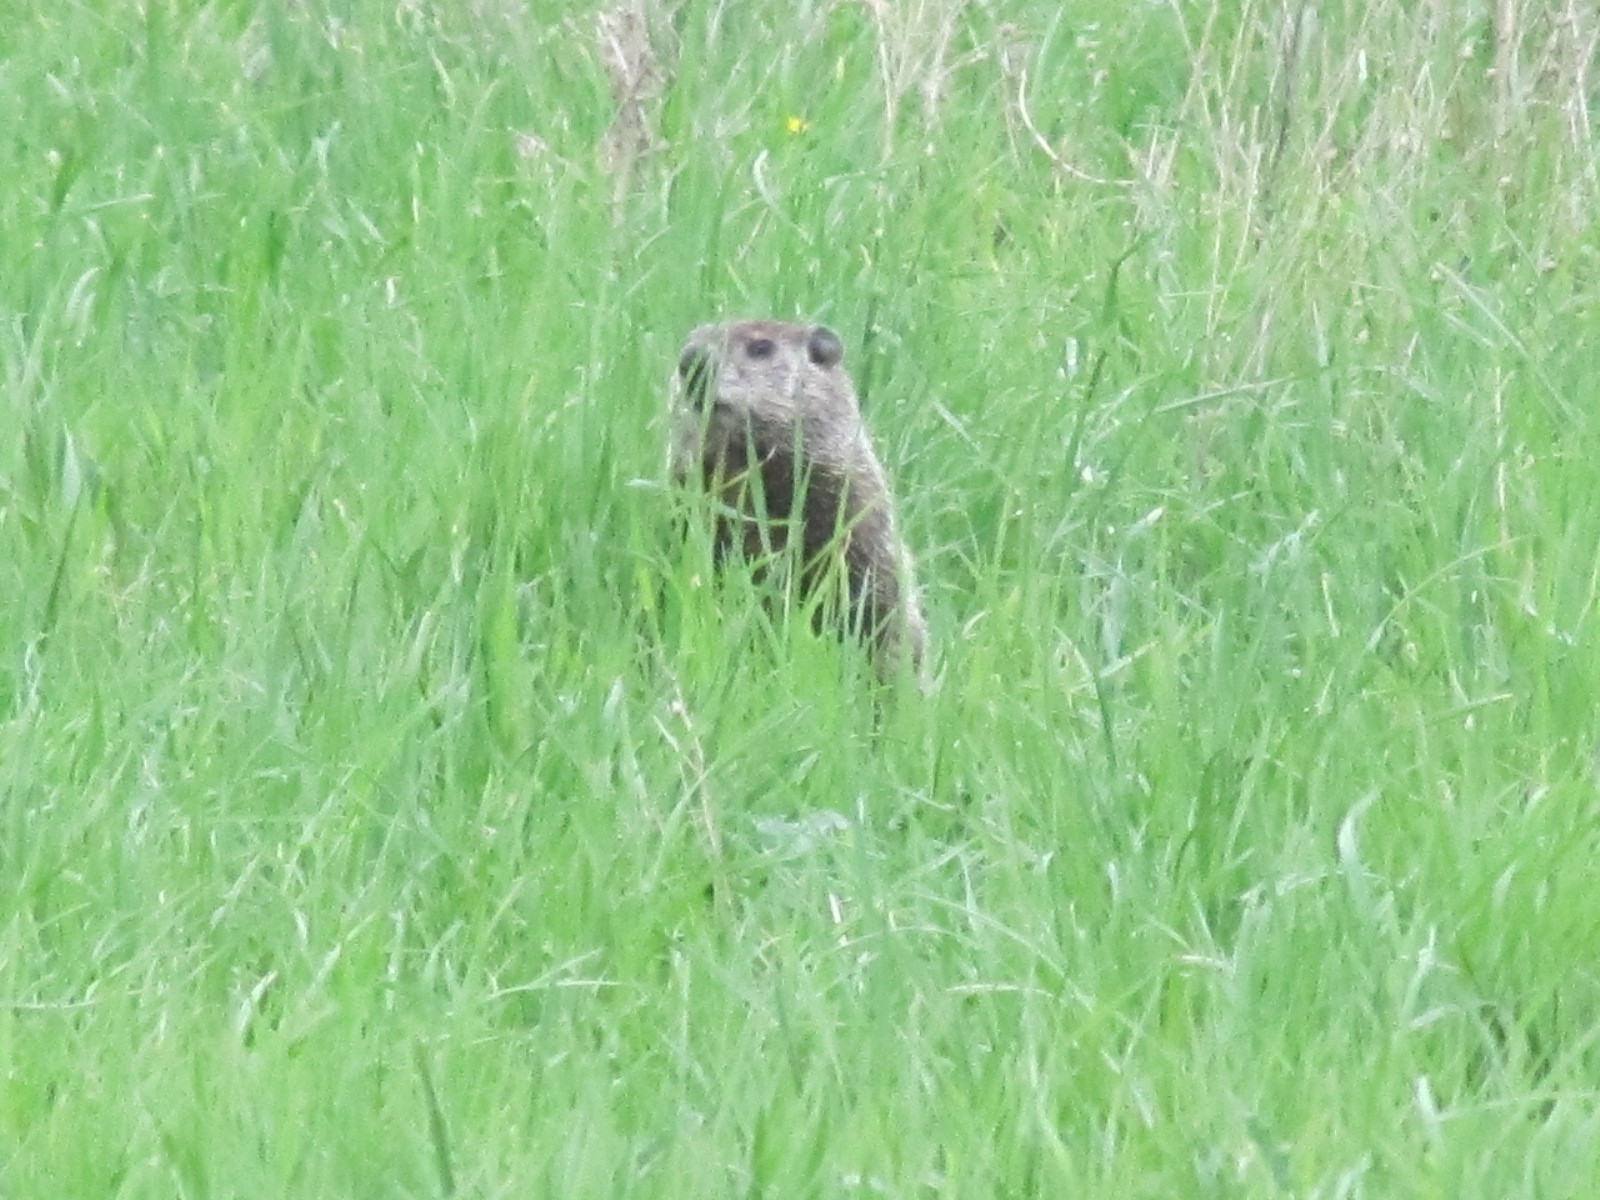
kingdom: Animalia
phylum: Chordata
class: Mammalia
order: Rodentia
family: Sciuridae
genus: Marmota
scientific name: Marmota monax
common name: Groundhog
